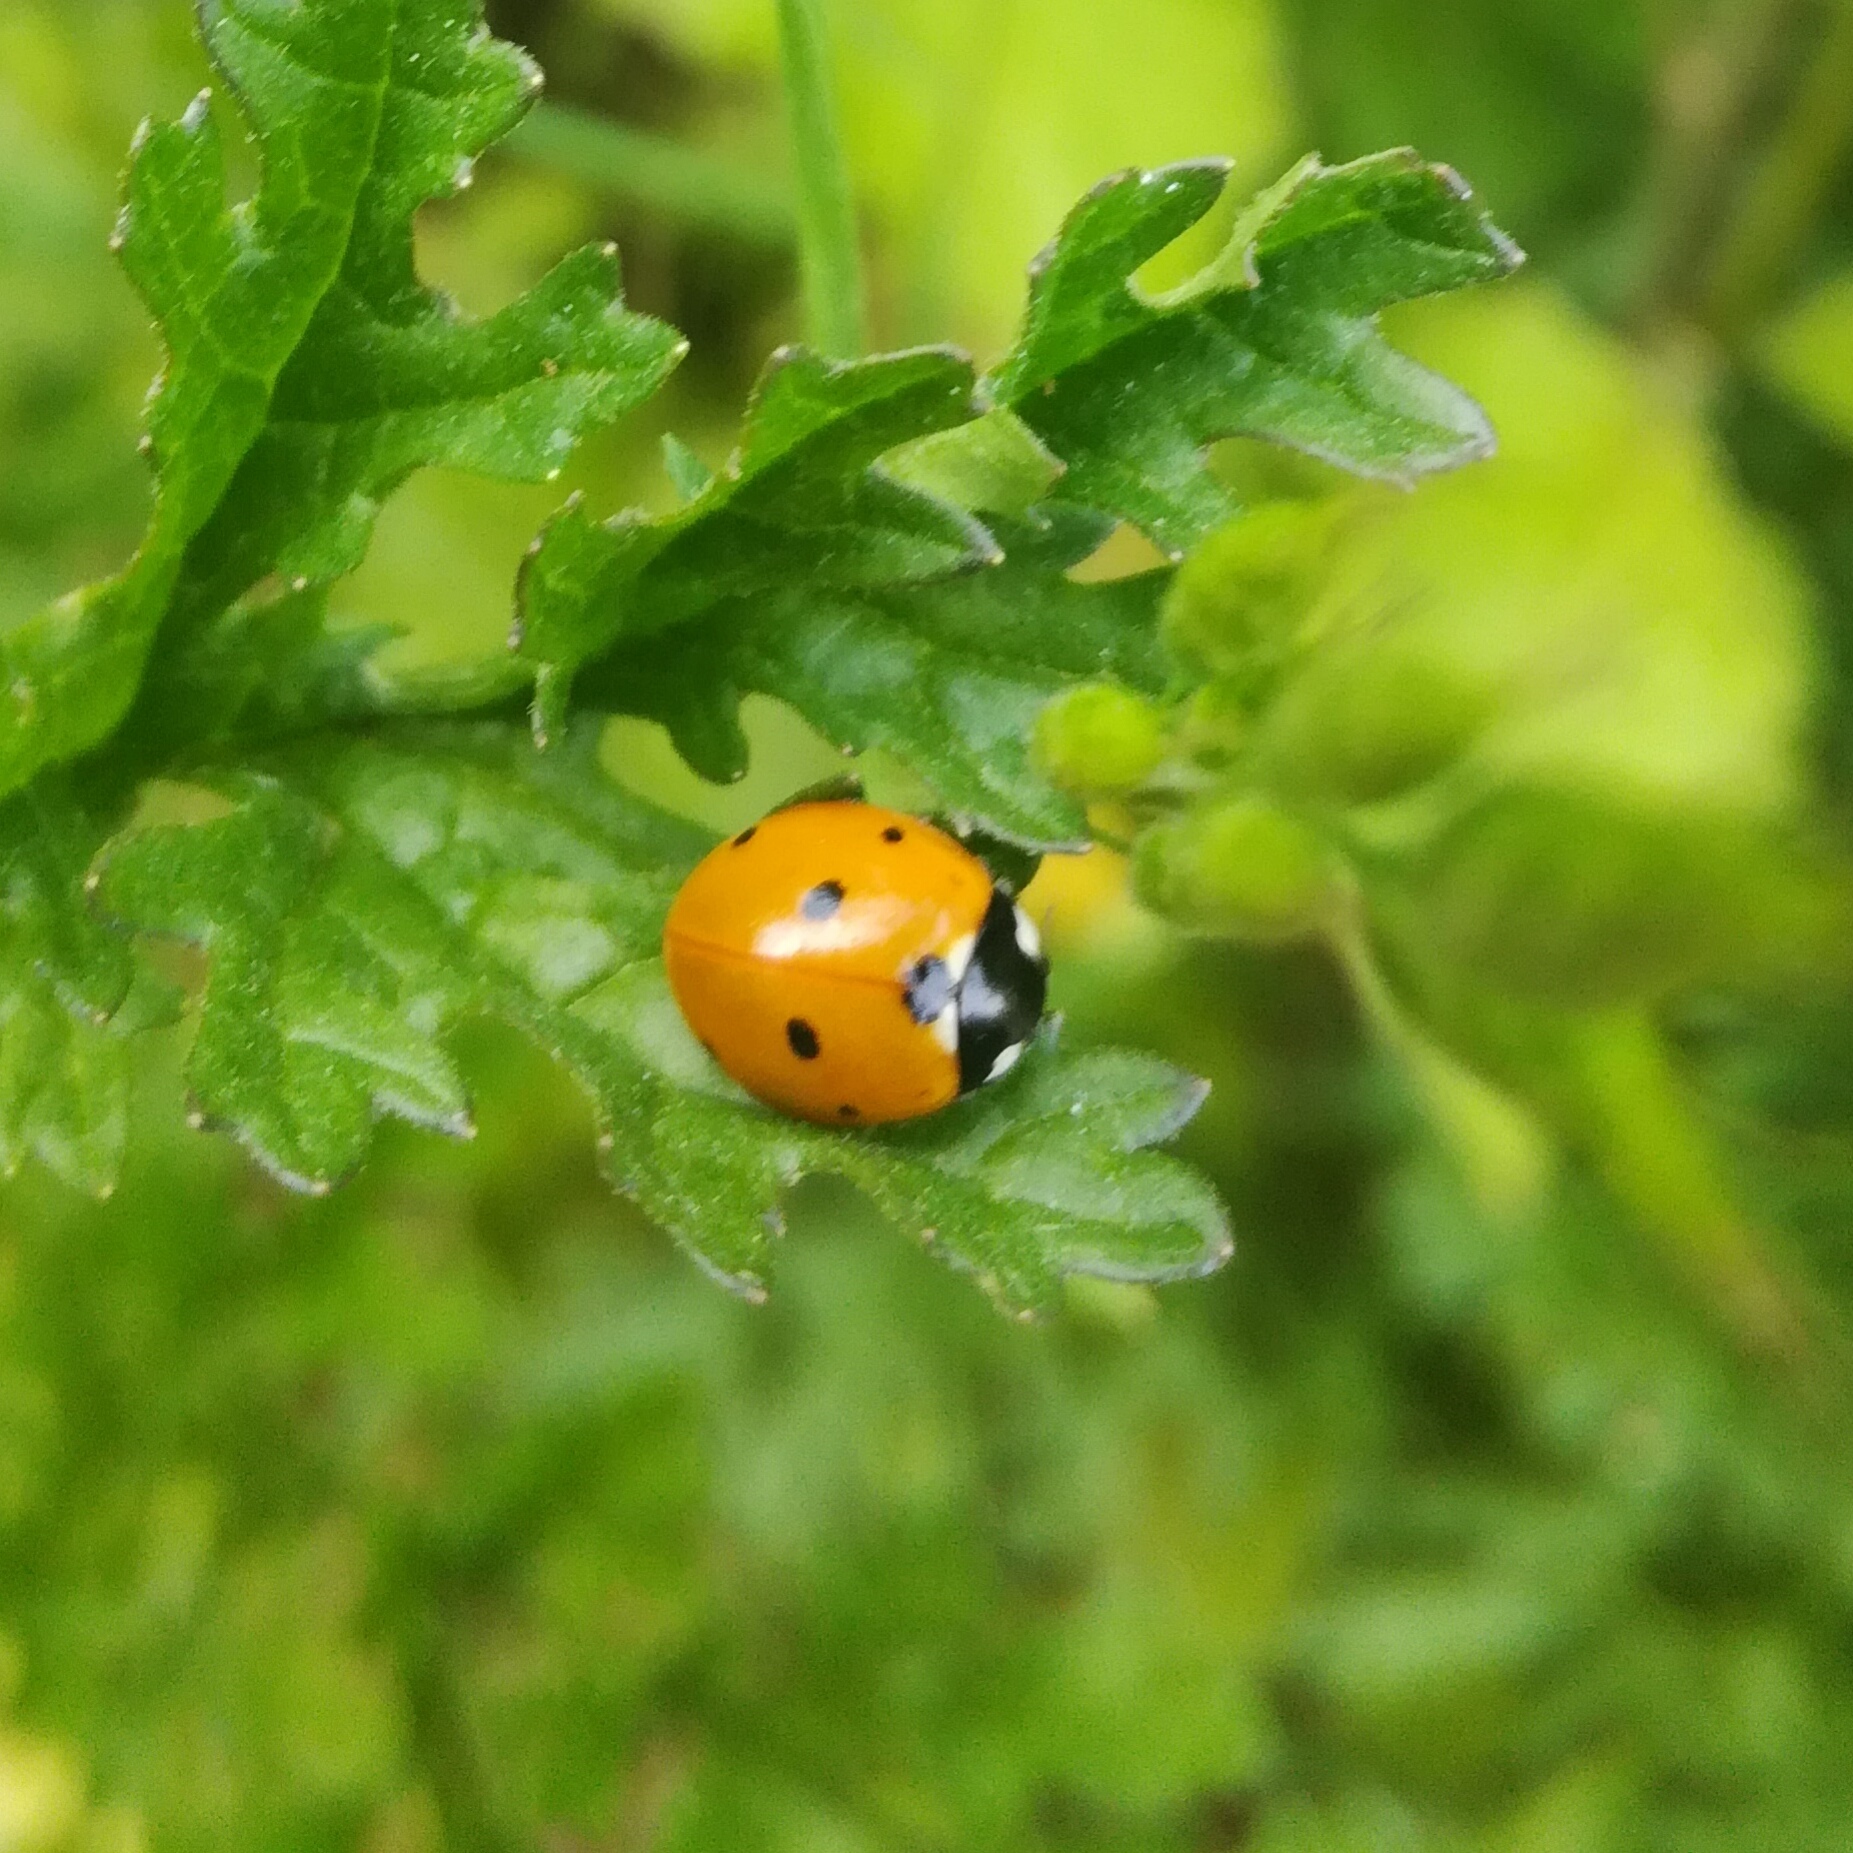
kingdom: Animalia
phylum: Arthropoda
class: Insecta
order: Coleoptera
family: Coccinellidae
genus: Coccinella
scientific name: Coccinella septempunctata
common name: Sevenspotted lady beetle
